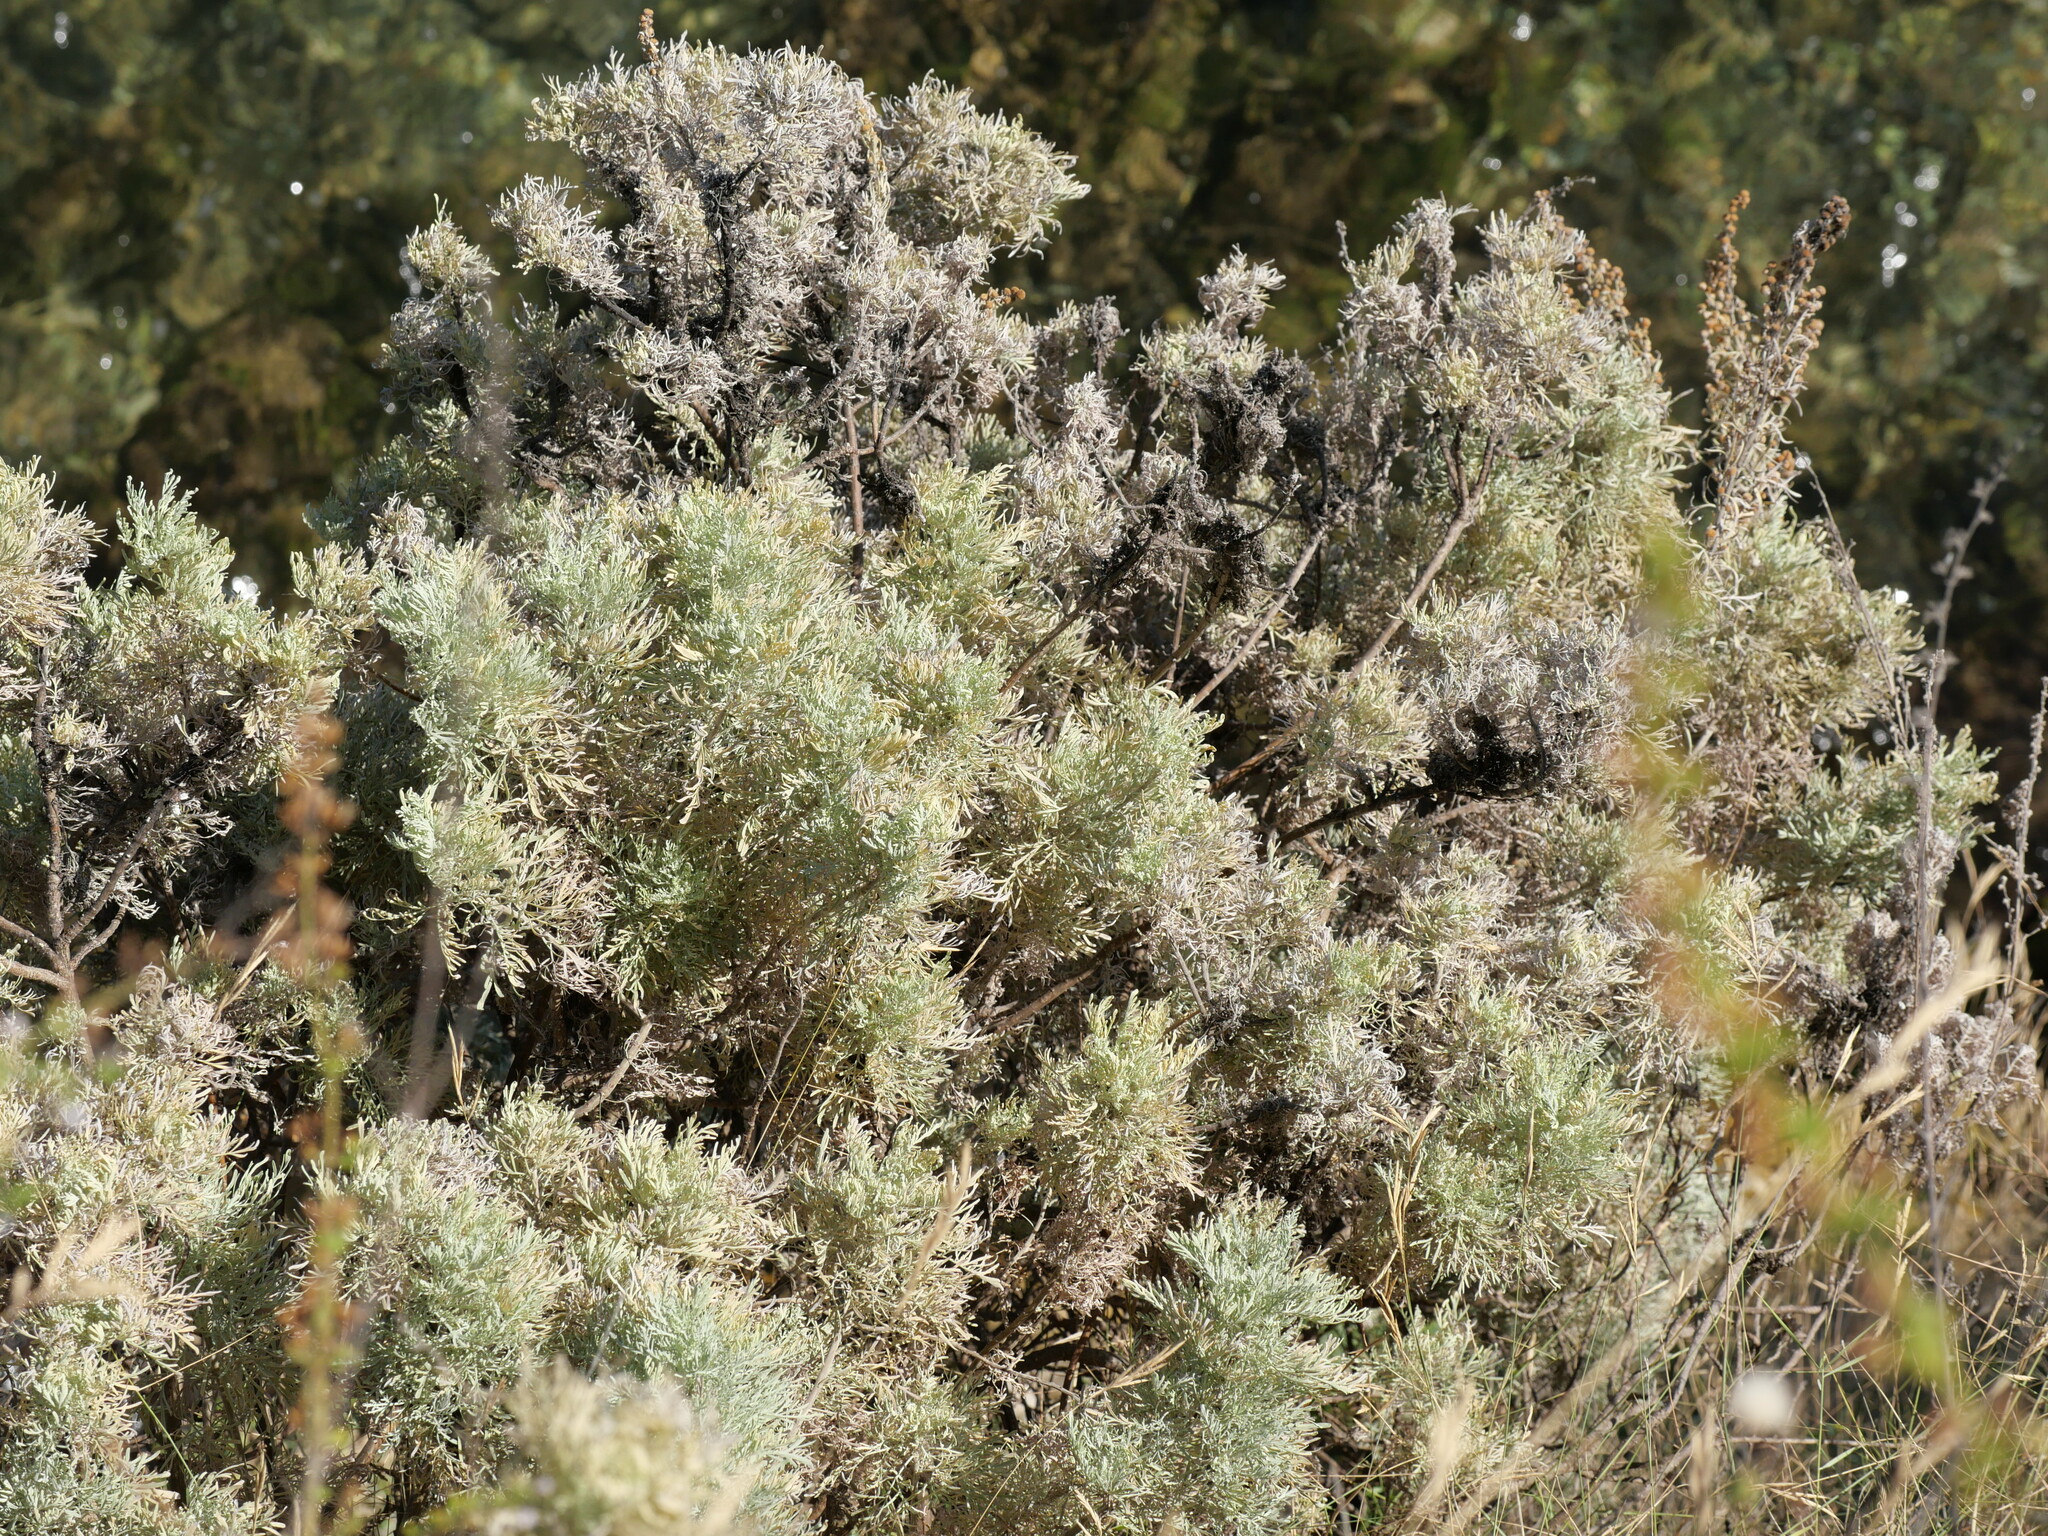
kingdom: Plantae
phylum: Tracheophyta
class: Magnoliopsida
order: Asterales
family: Asteraceae
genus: Artemisia
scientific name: Artemisia arborescens
